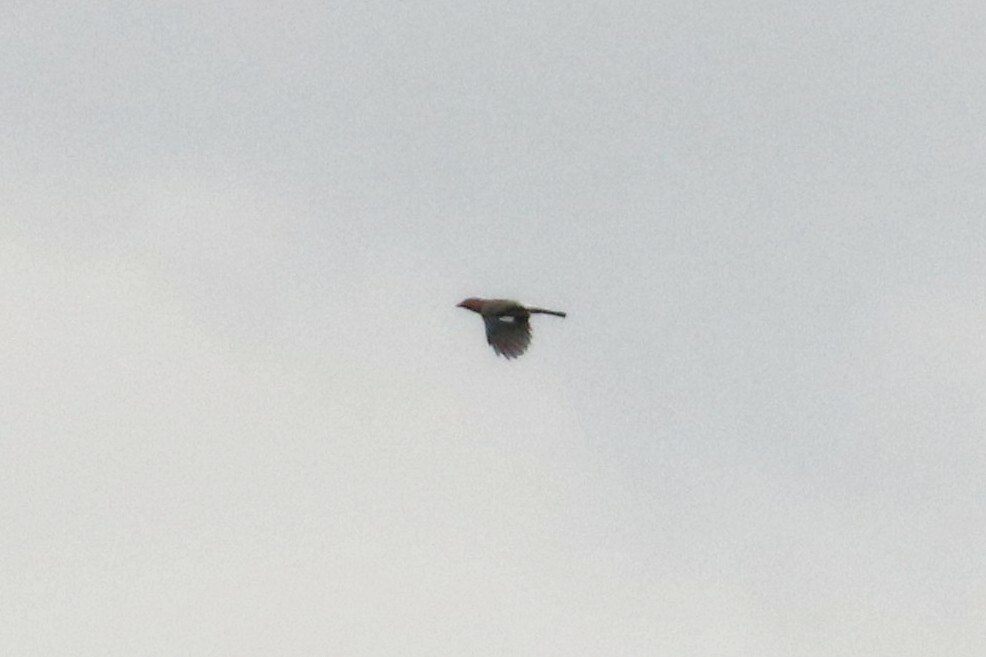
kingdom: Animalia
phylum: Chordata
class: Aves
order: Passeriformes
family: Corvidae
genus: Garrulus
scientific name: Garrulus glandarius
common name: Eurasian jay
